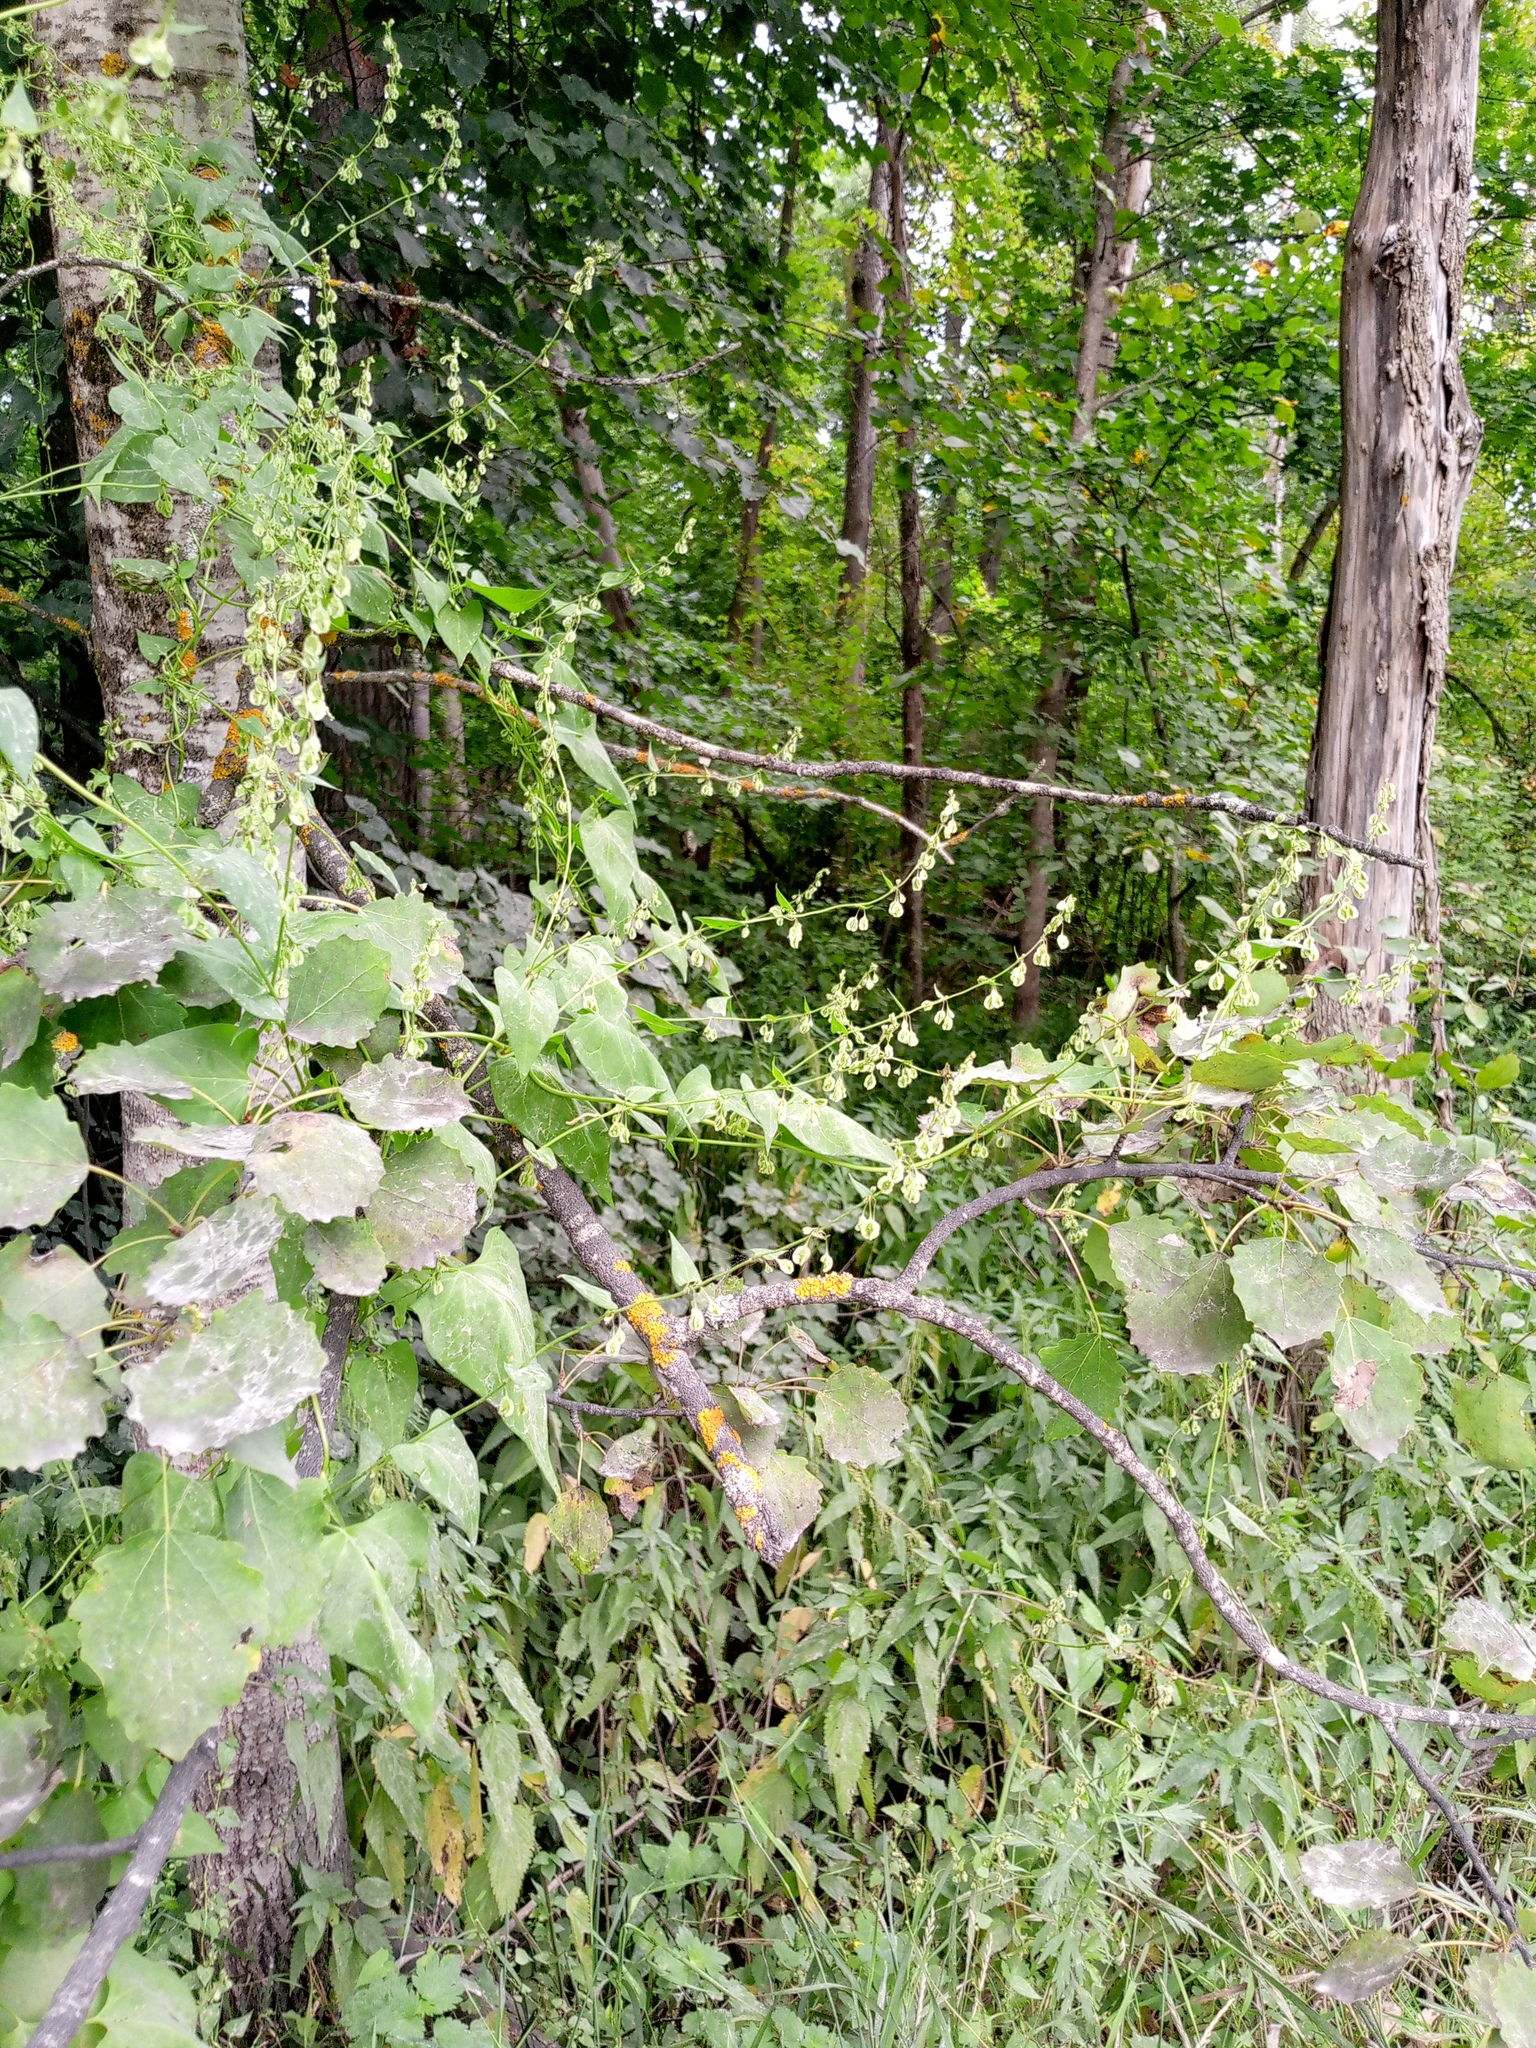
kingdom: Plantae
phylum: Tracheophyta
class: Magnoliopsida
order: Caryophyllales
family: Polygonaceae
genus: Fallopia
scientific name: Fallopia dumetorum
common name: Copse-bindweed
